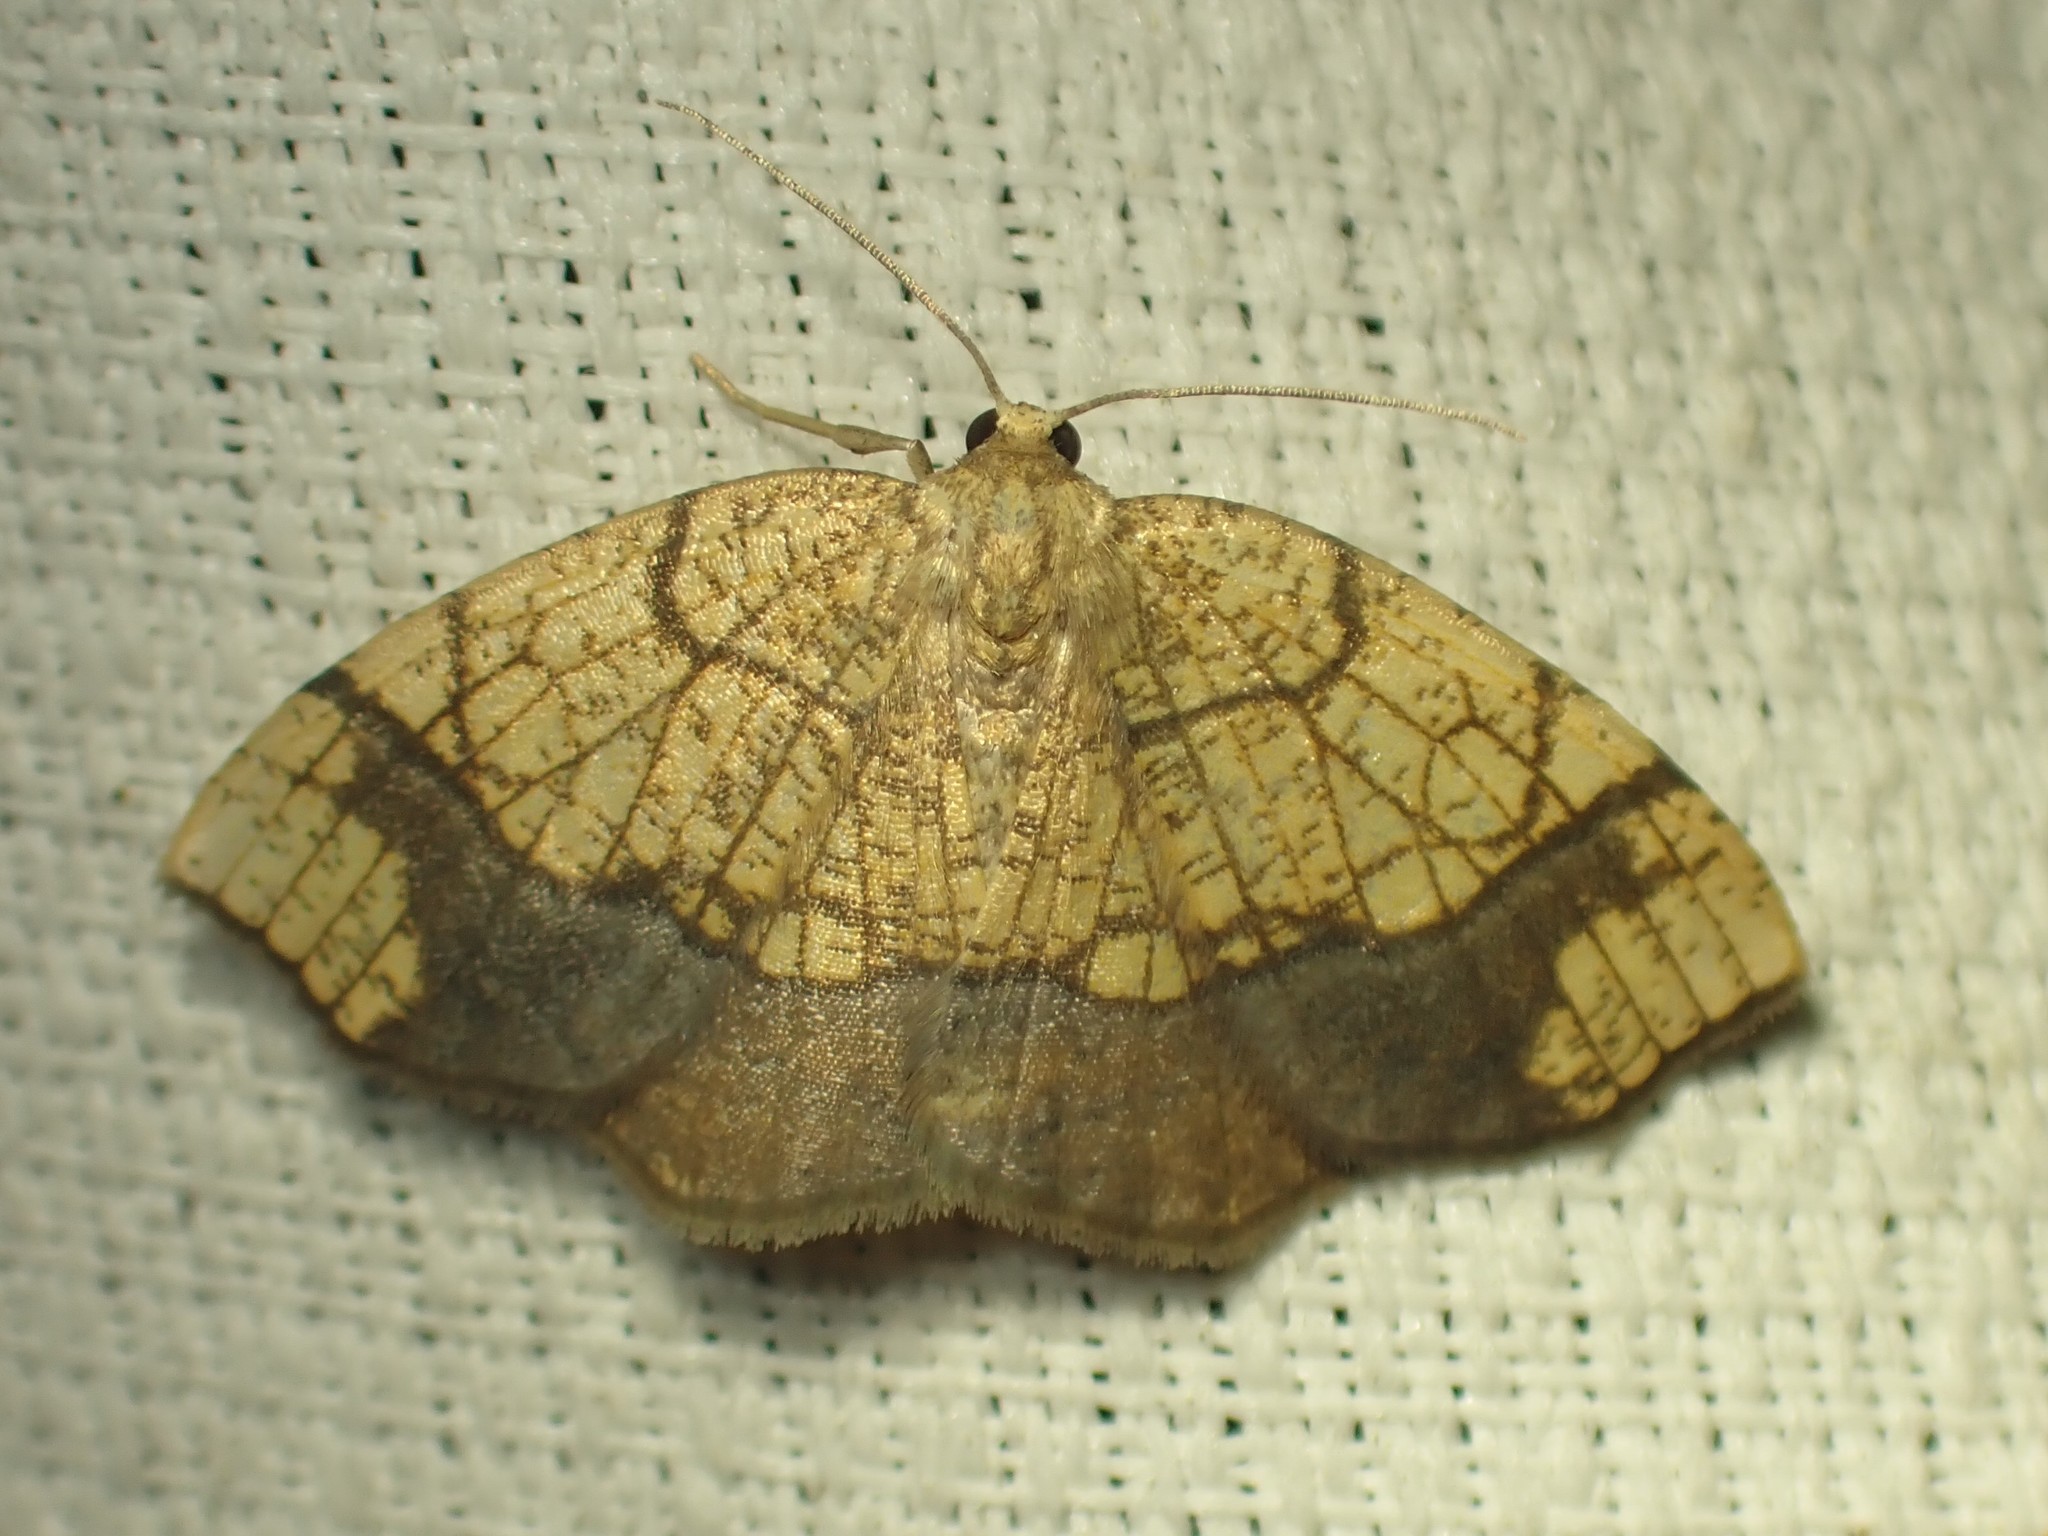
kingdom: Animalia
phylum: Arthropoda
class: Insecta
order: Lepidoptera
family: Geometridae
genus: Nematocampa
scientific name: Nematocampa resistaria
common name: Horned spanworm moth
